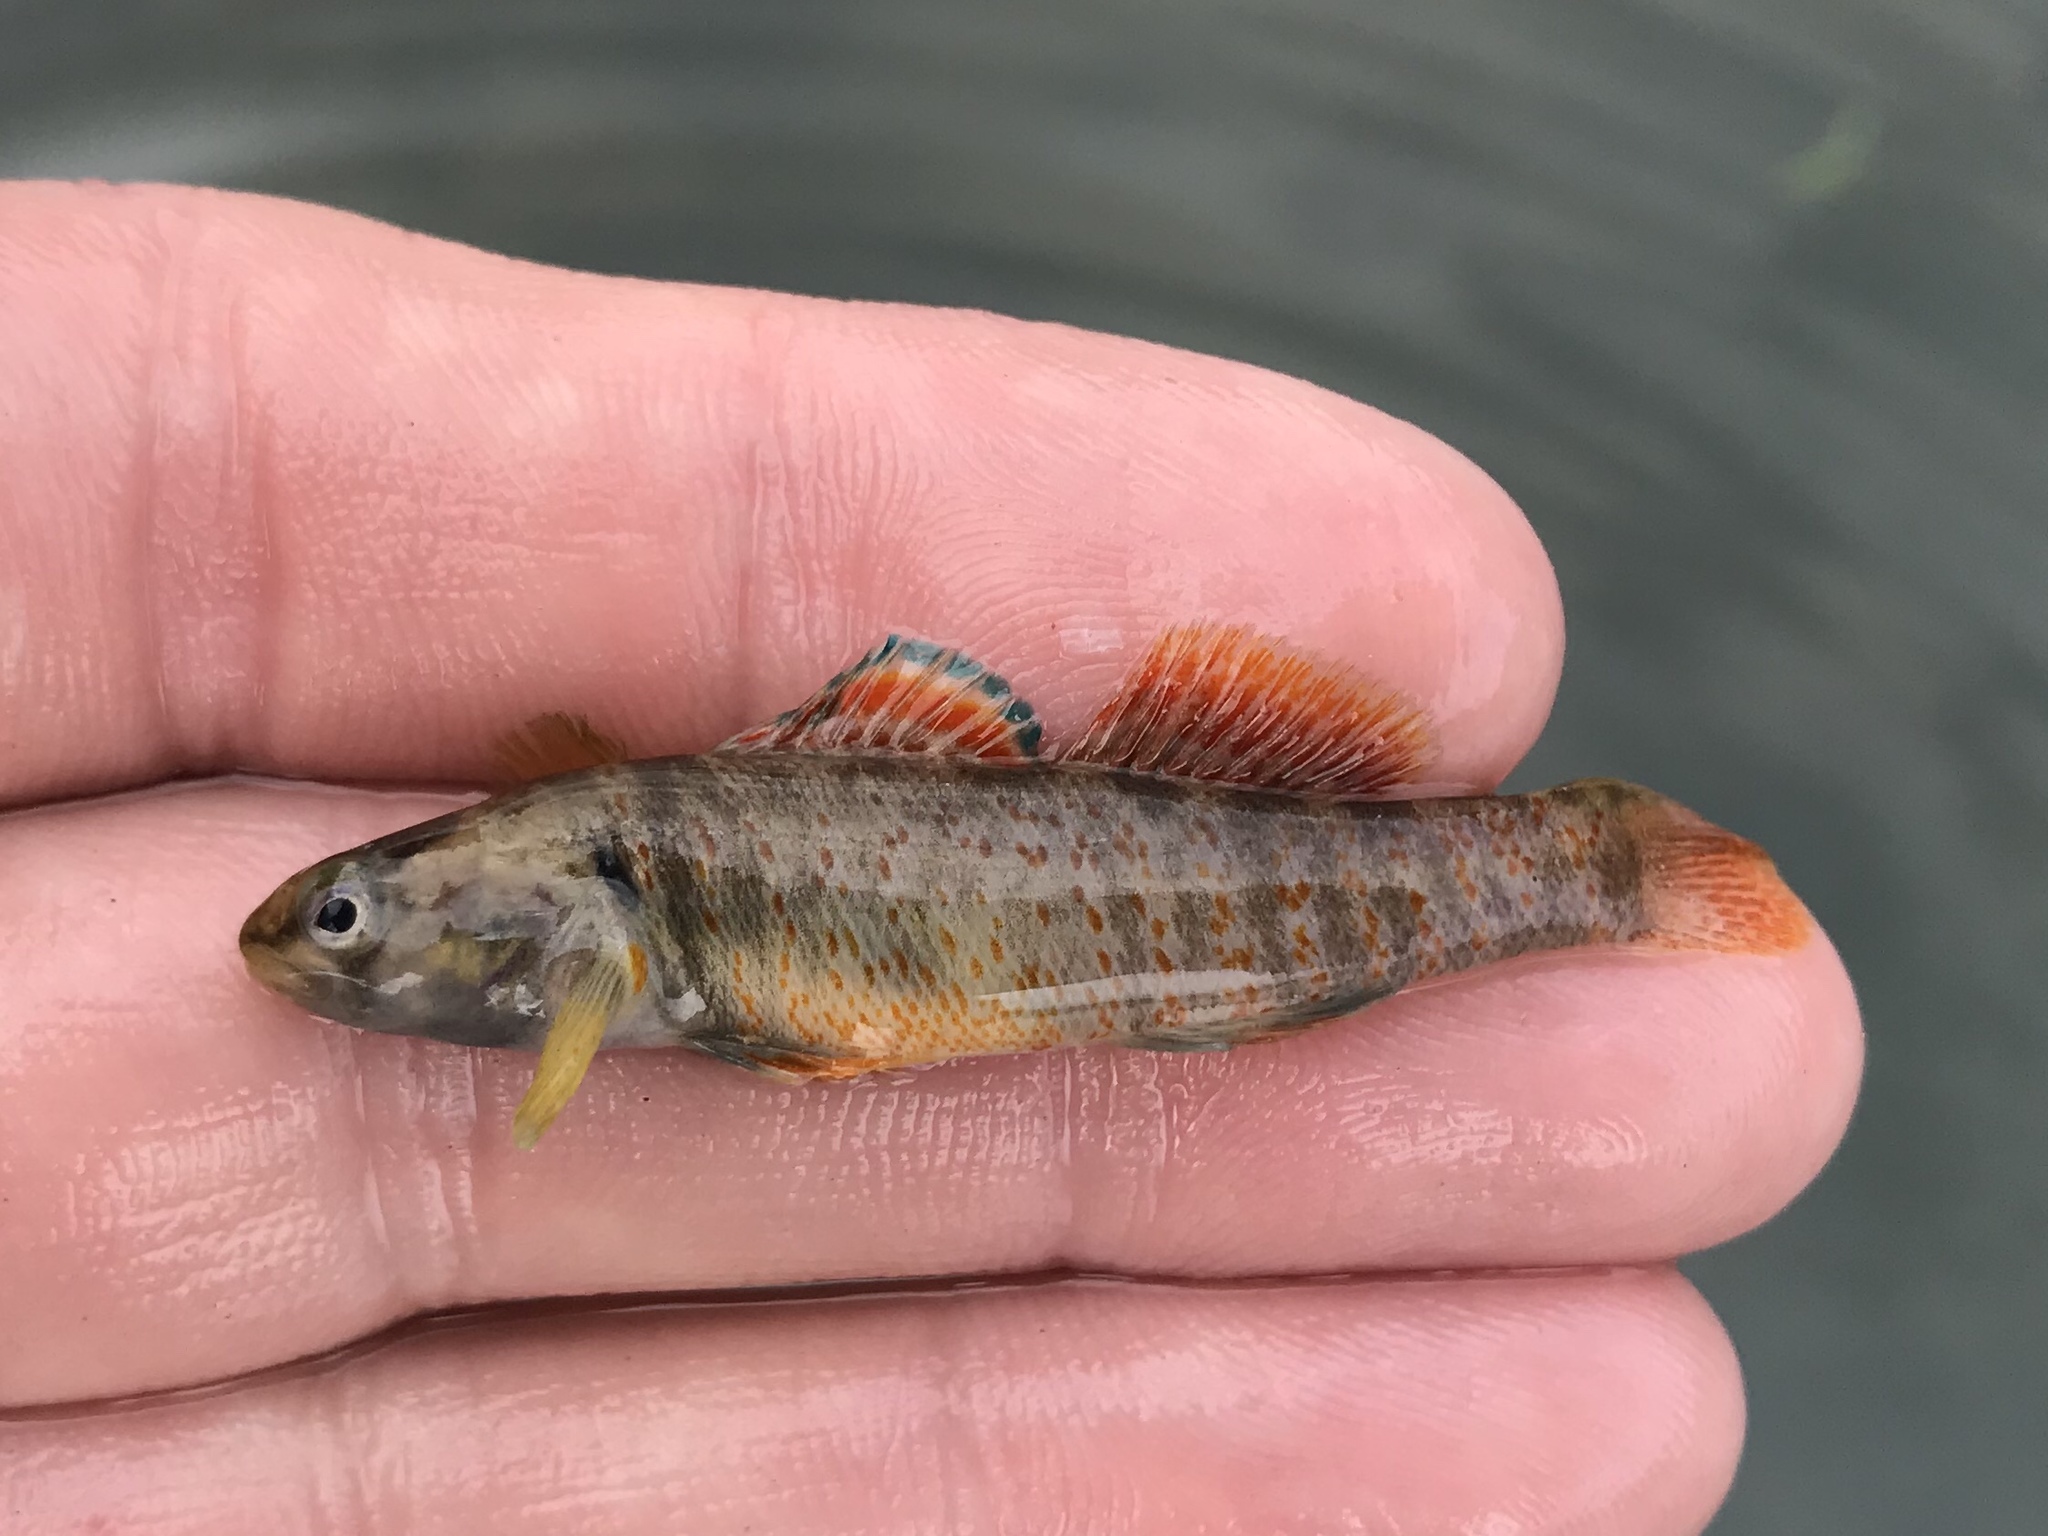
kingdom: Animalia
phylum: Chordata
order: Perciformes
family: Percidae
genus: Etheostoma
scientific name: Etheostoma lepidum
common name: Greenthroat darter
